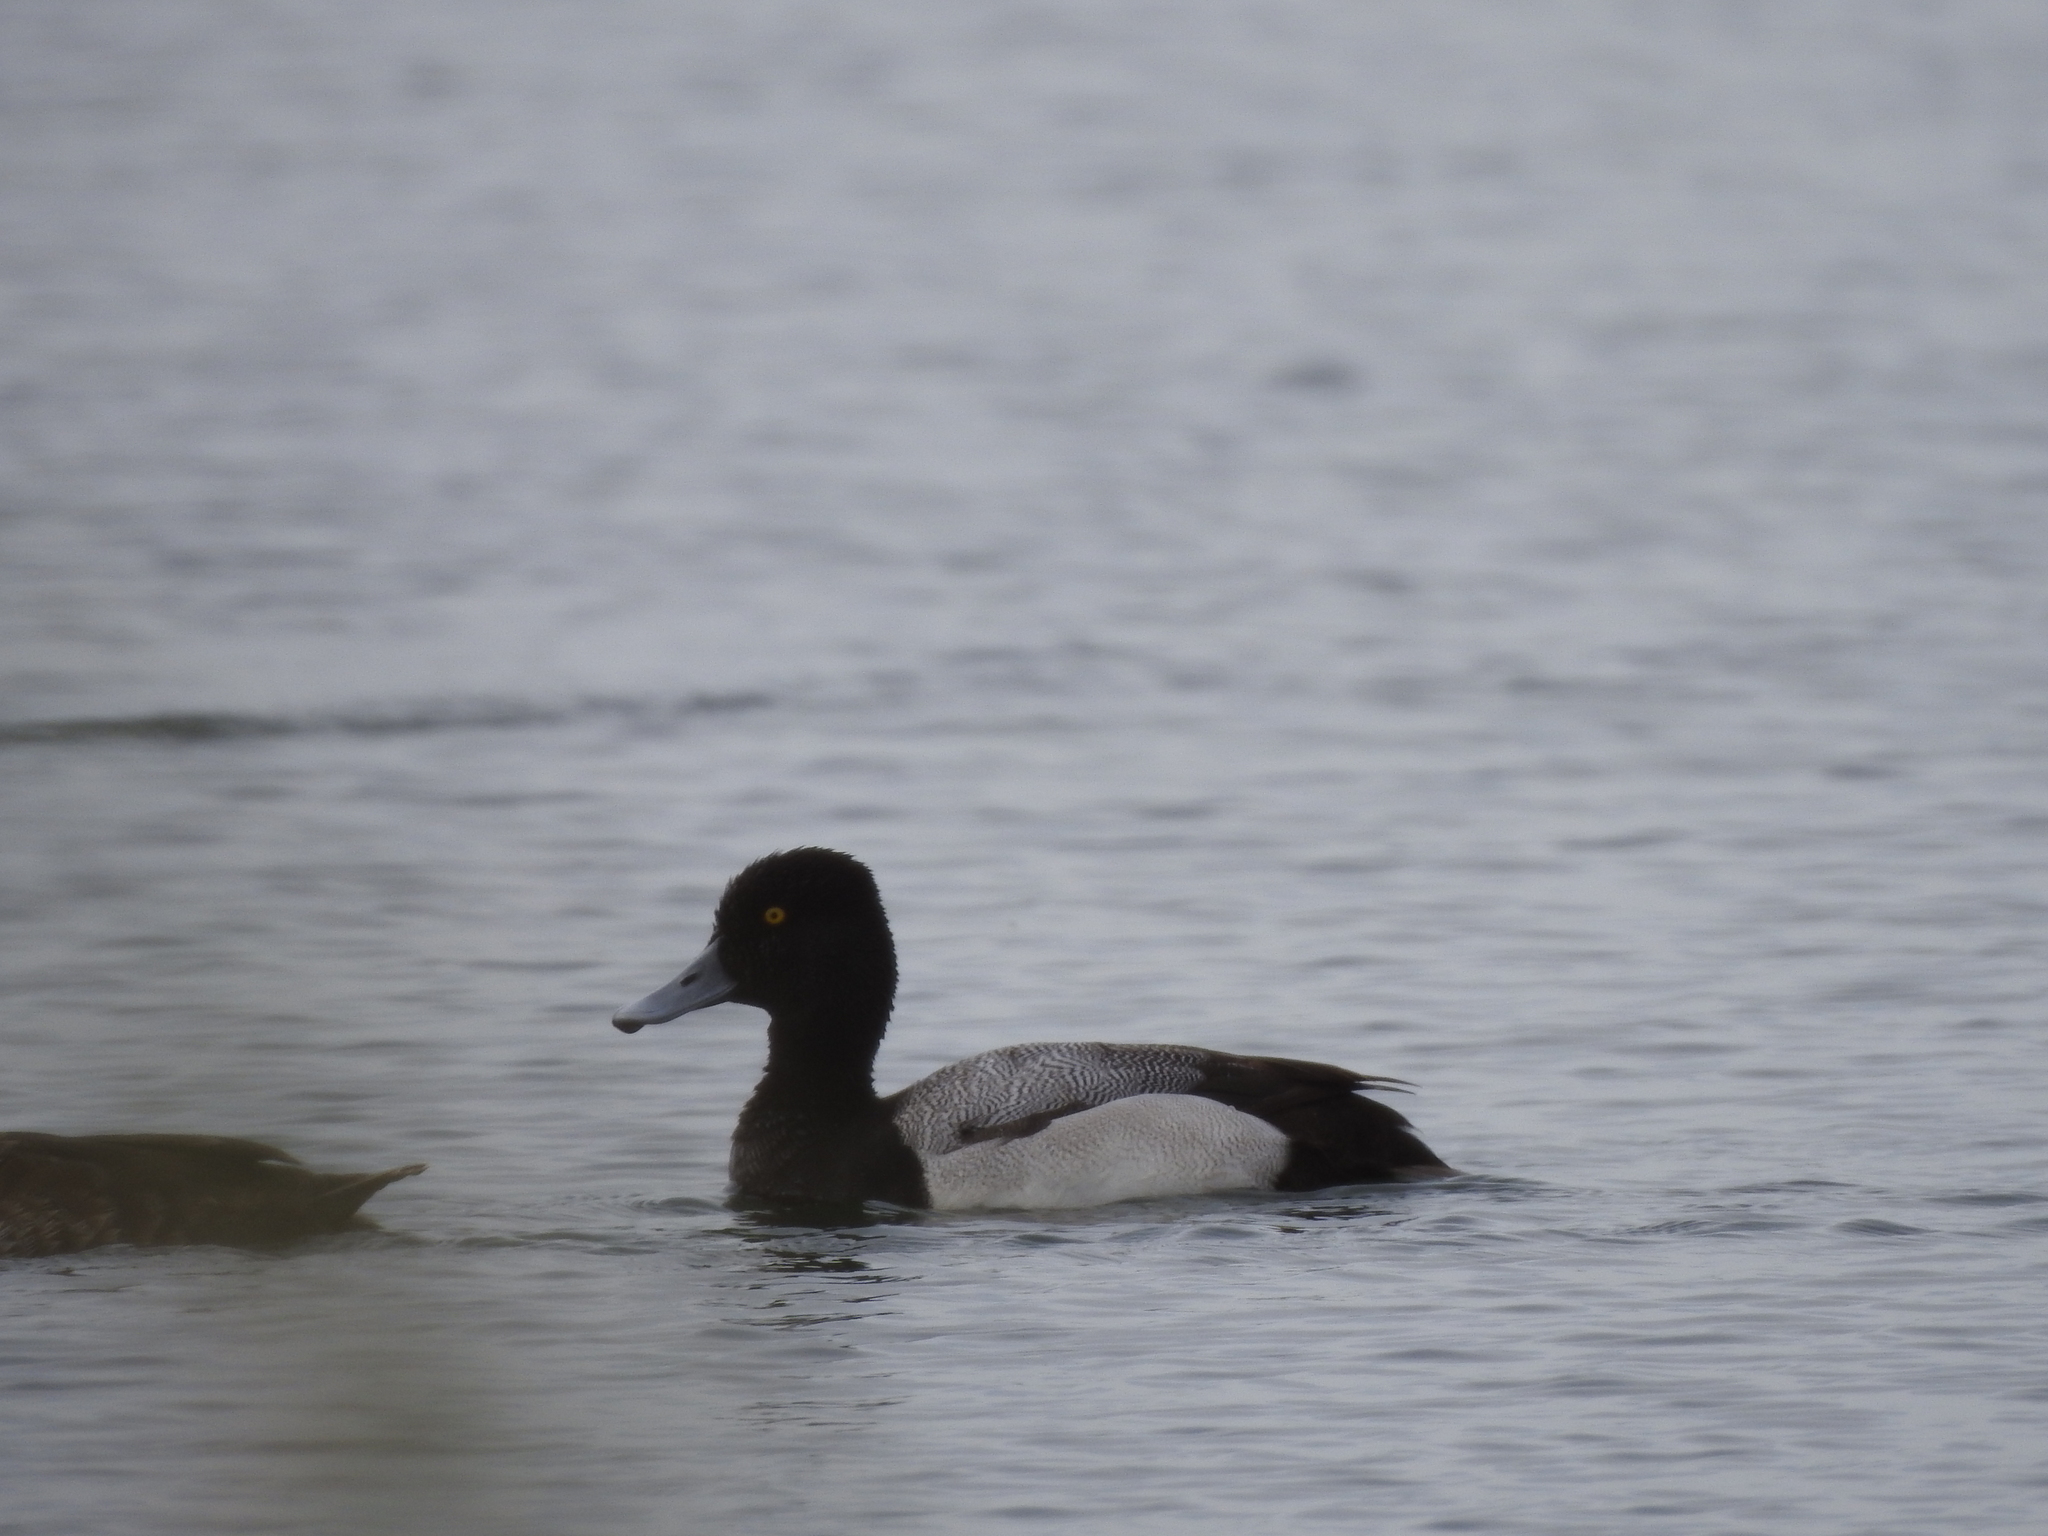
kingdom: Animalia
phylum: Chordata
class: Aves
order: Anseriformes
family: Anatidae
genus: Aythya
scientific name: Aythya affinis
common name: Lesser scaup
